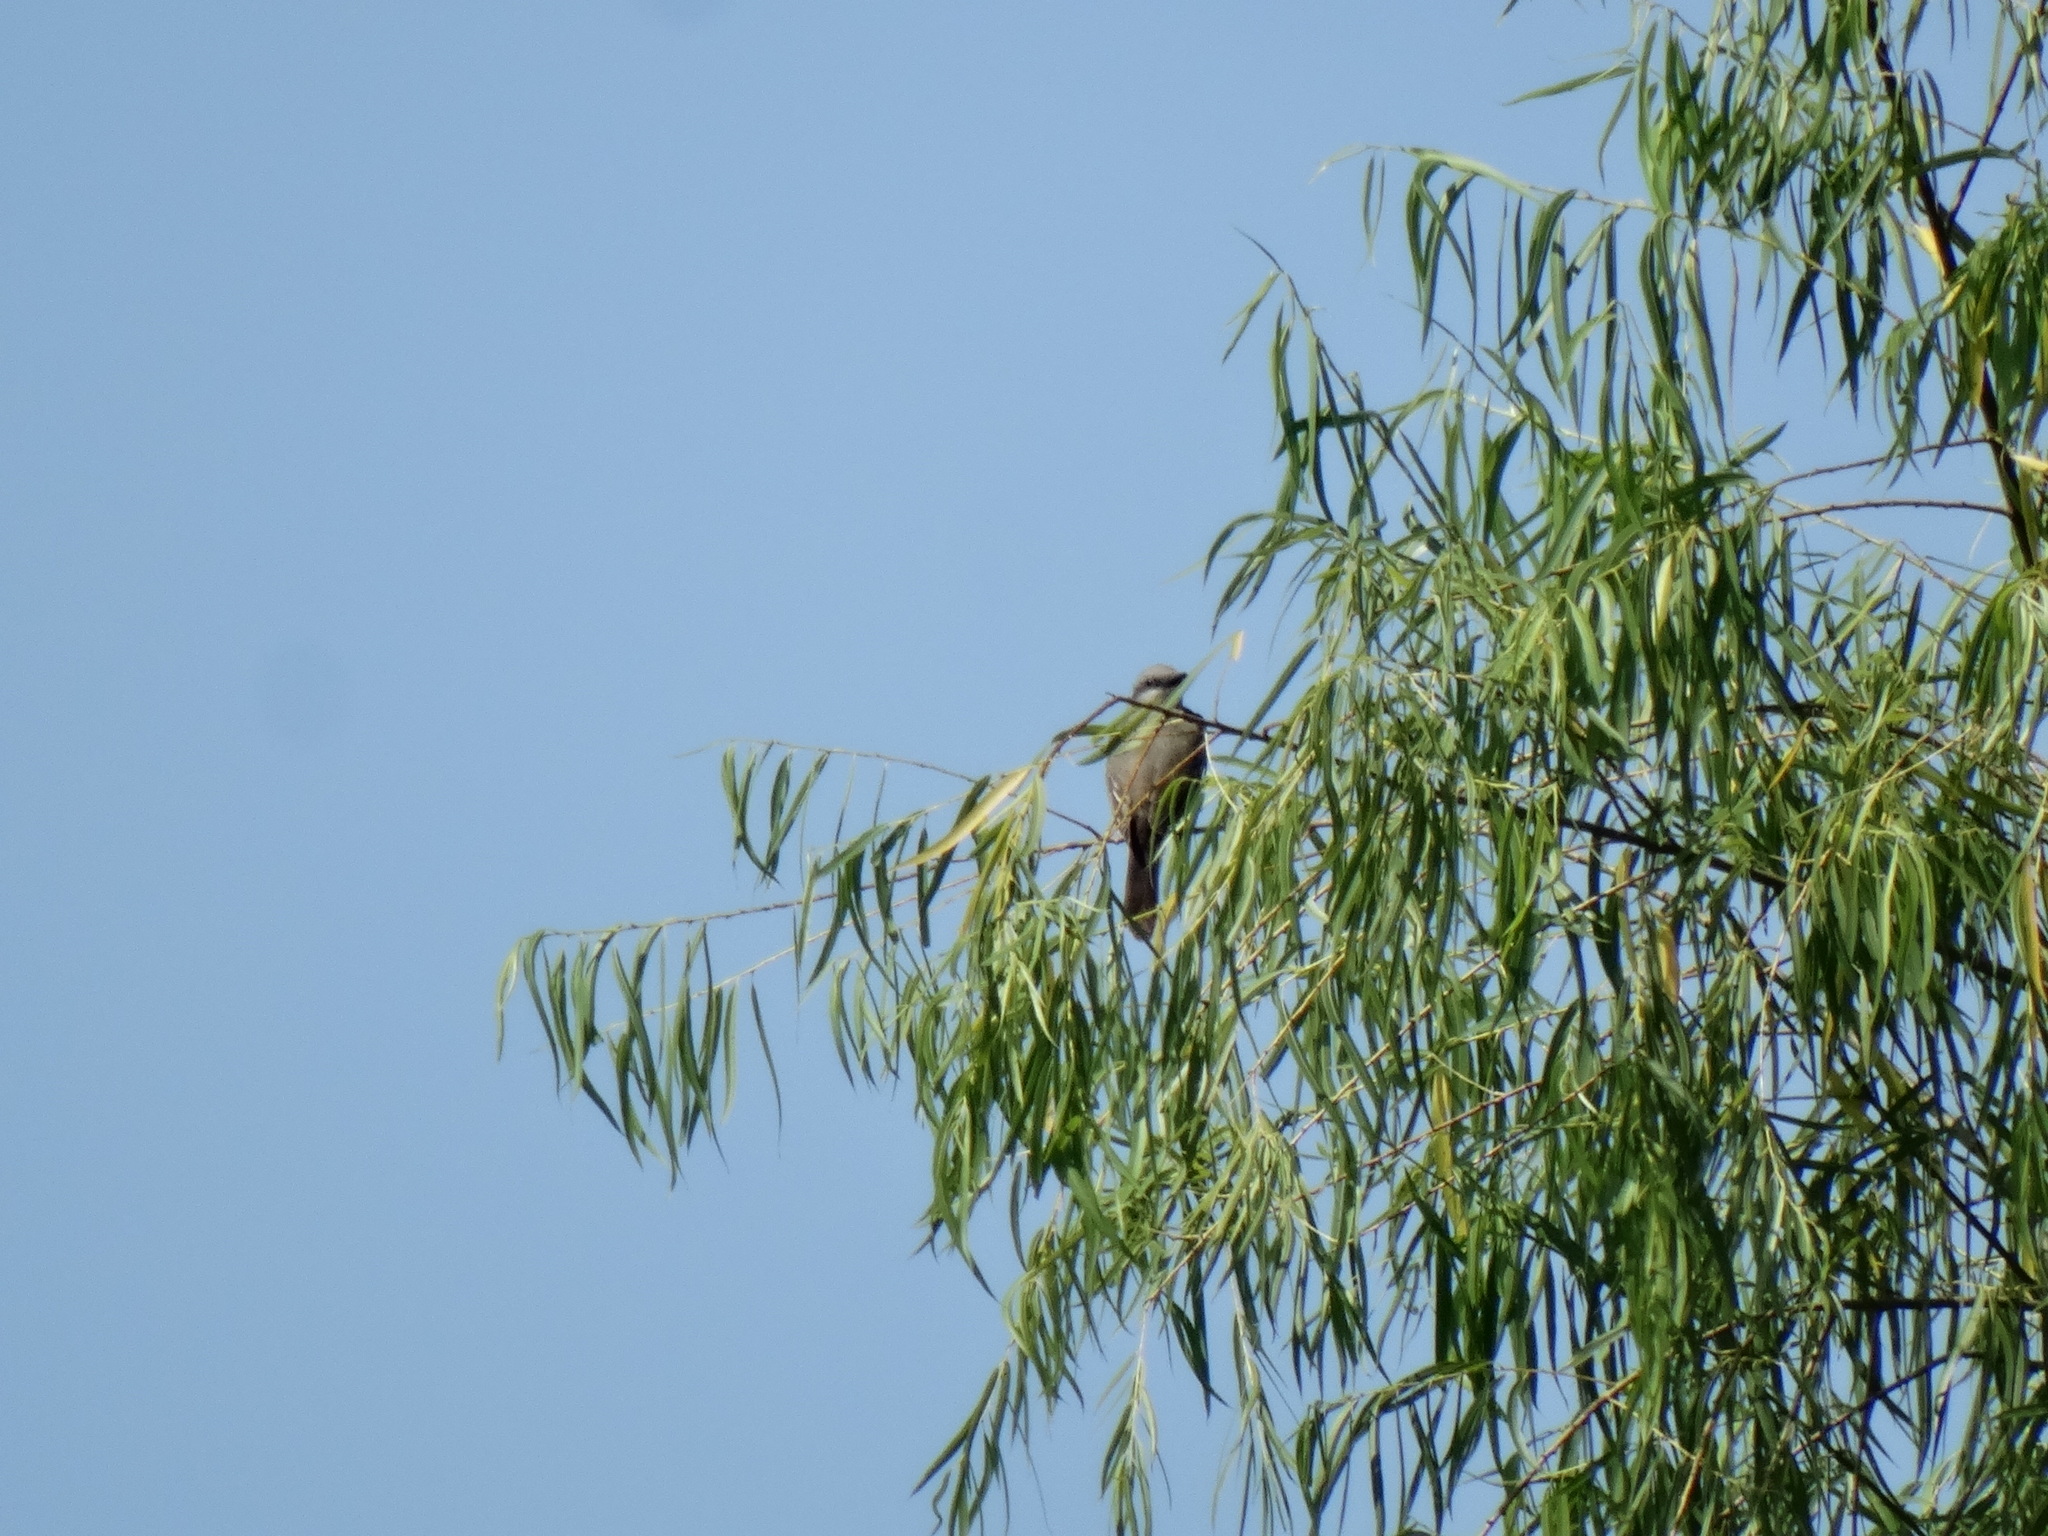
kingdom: Animalia
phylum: Chordata
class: Aves
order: Passeriformes
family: Tyrannidae
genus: Tyrannus
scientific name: Tyrannus melancholicus
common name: Tropical kingbird
